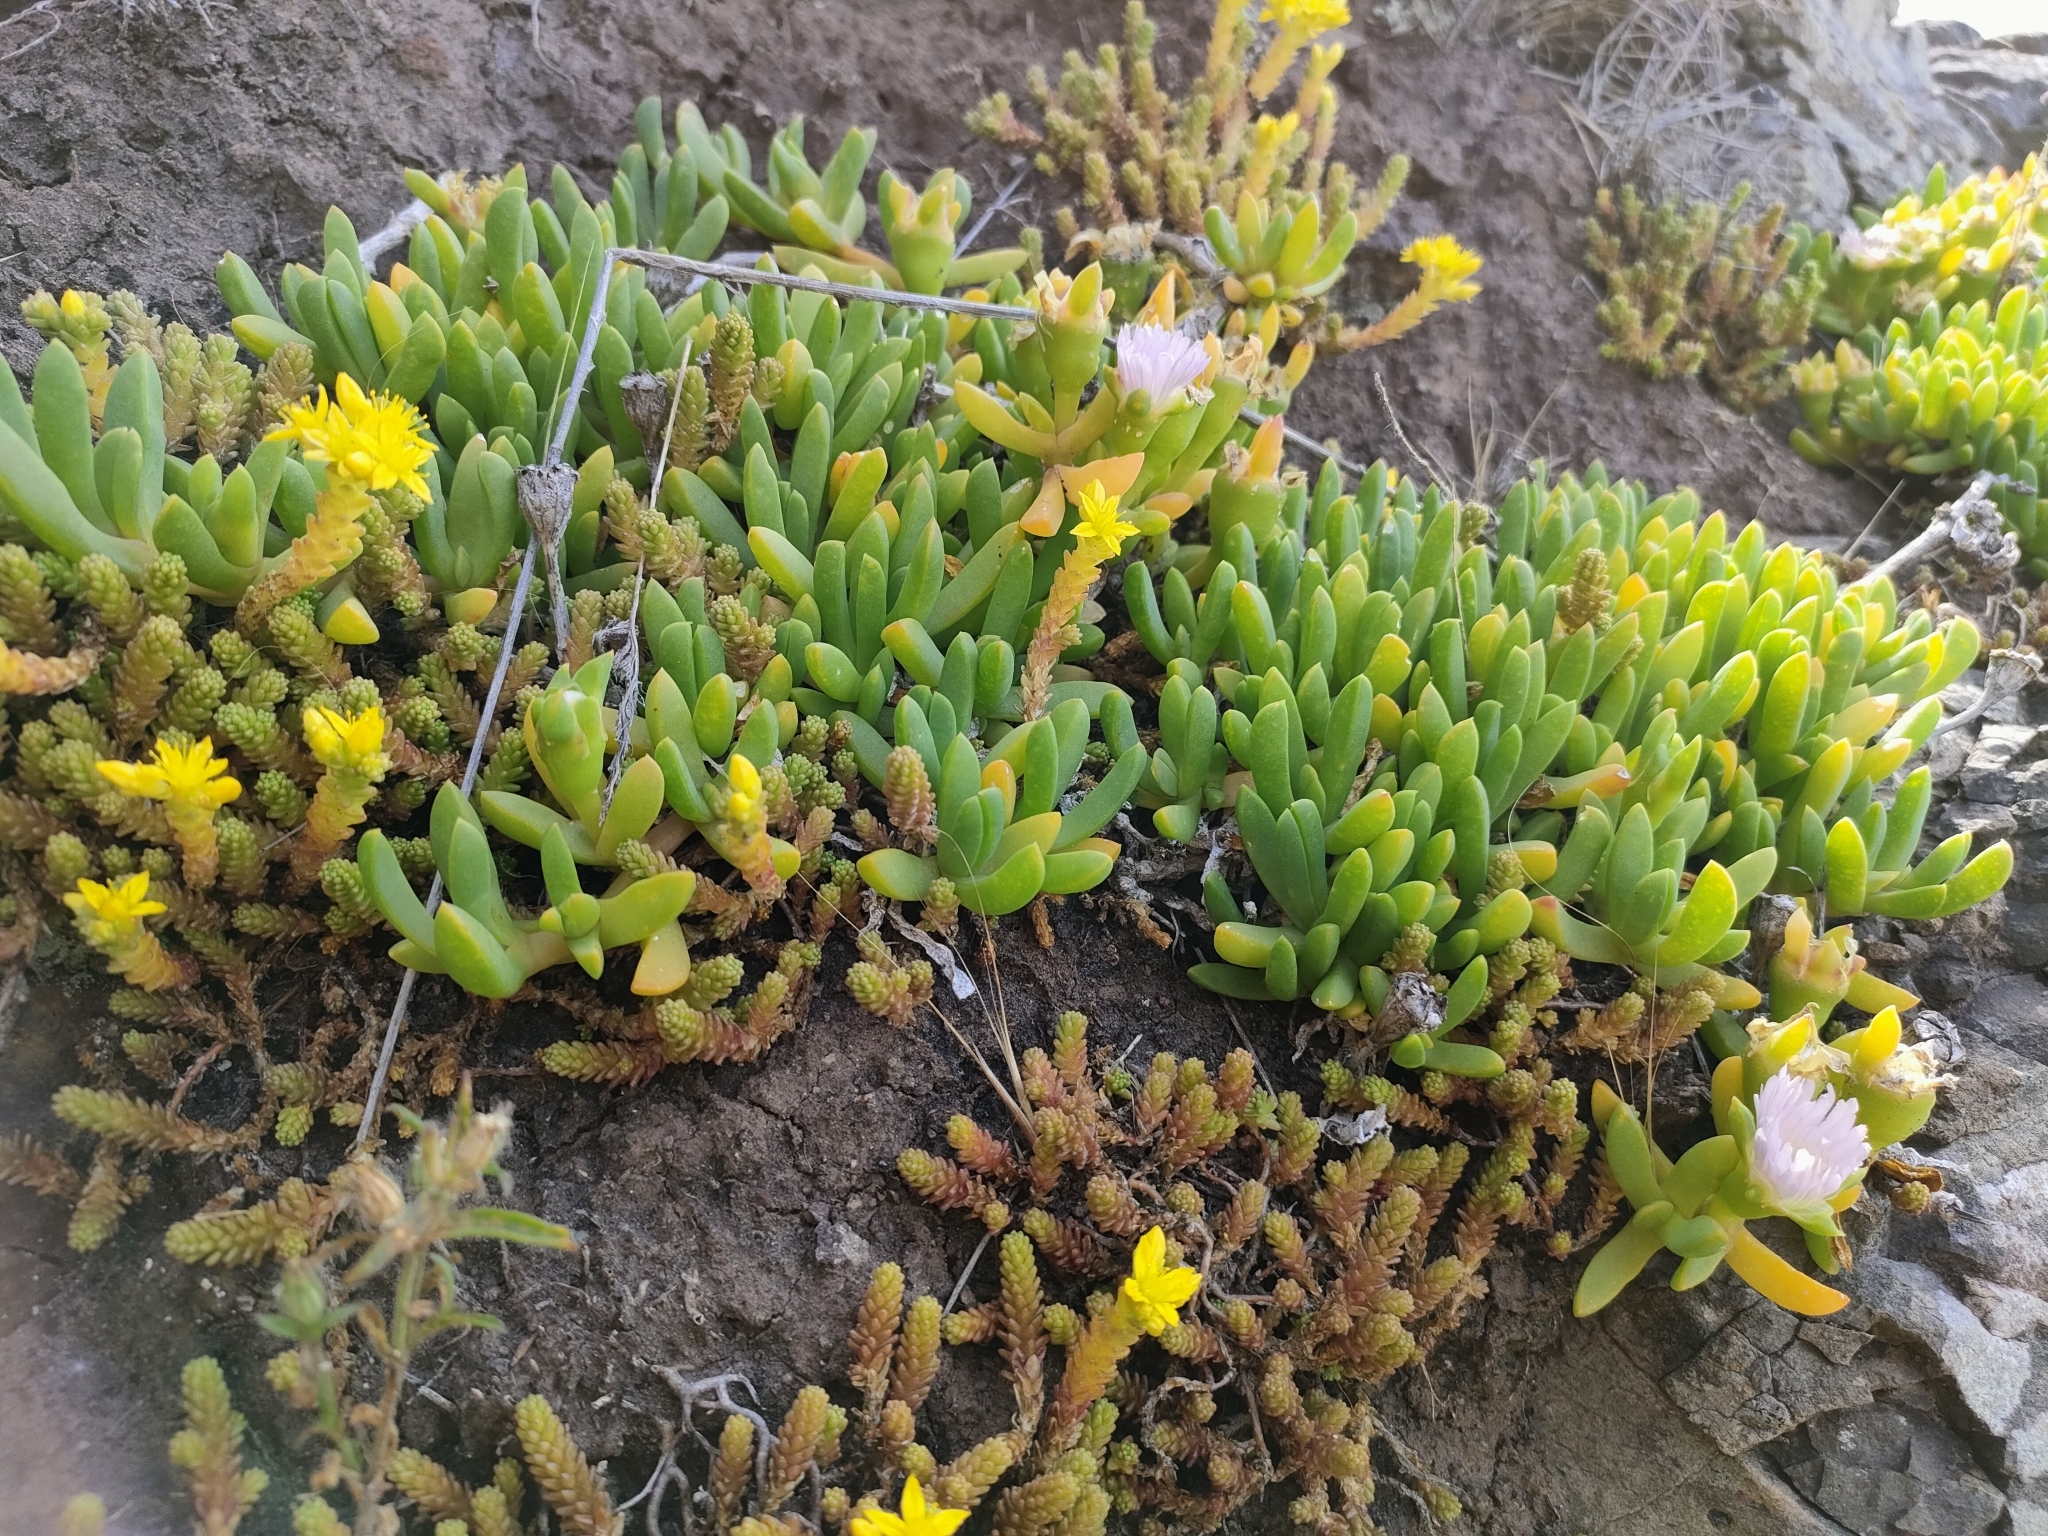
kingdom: Plantae
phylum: Tracheophyta
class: Magnoliopsida
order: Caryophyllales
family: Aizoaceae
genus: Disphyma
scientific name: Disphyma australe
